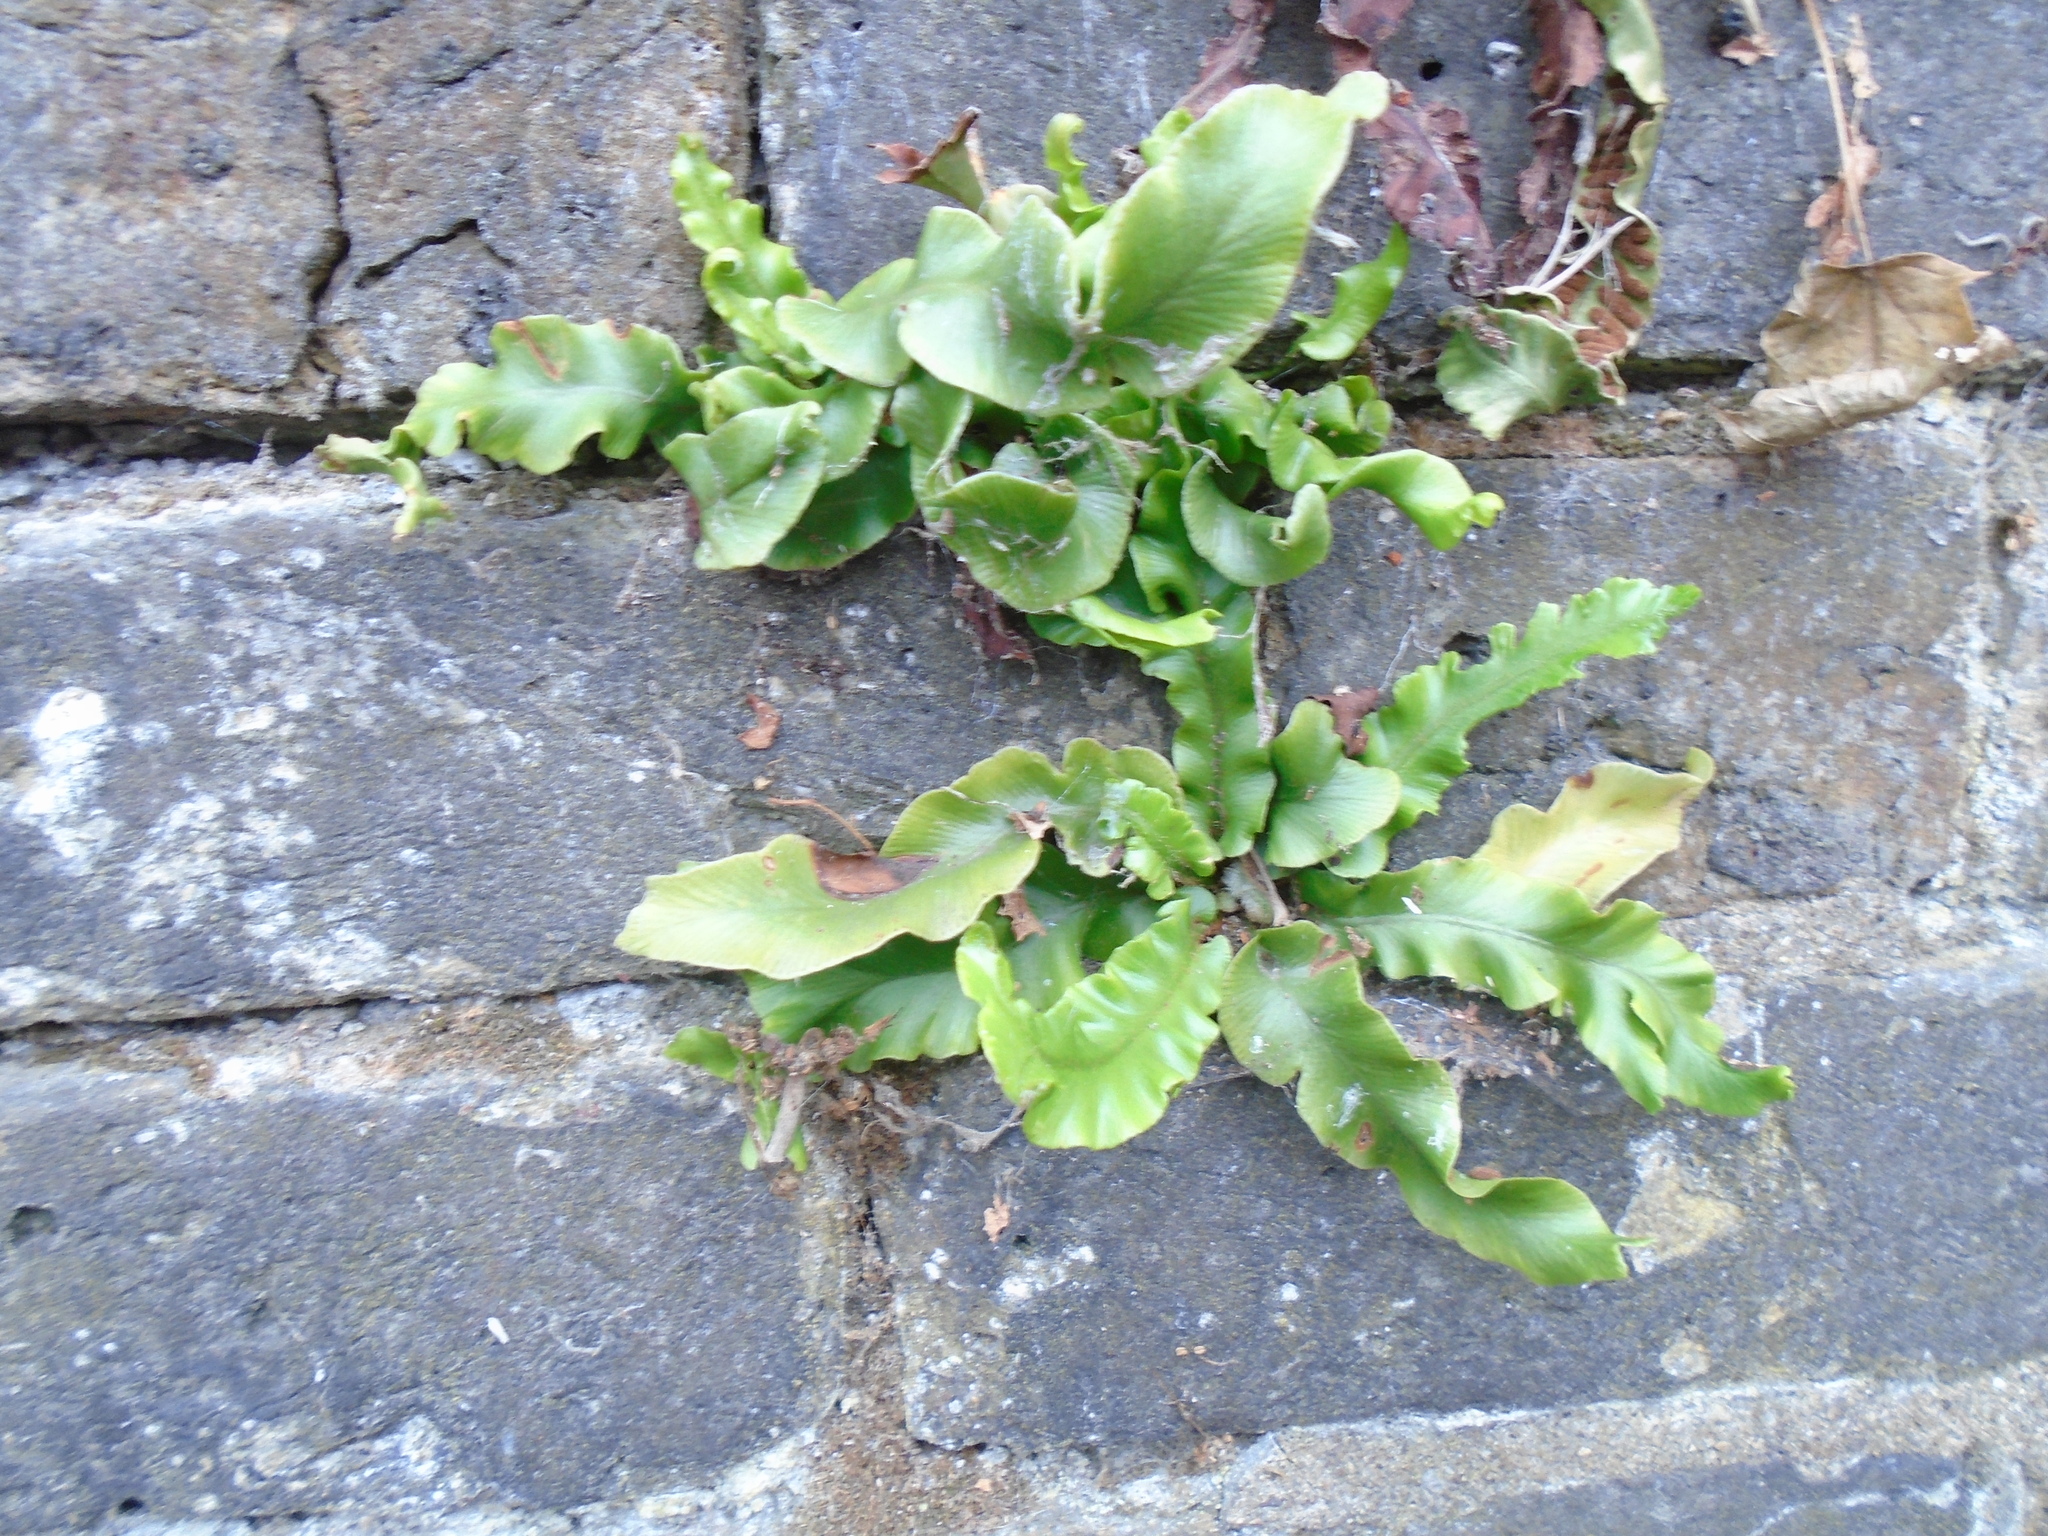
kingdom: Plantae
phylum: Tracheophyta
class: Polypodiopsida
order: Polypodiales
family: Aspleniaceae
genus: Asplenium
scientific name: Asplenium scolopendrium
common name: Hart's-tongue fern
